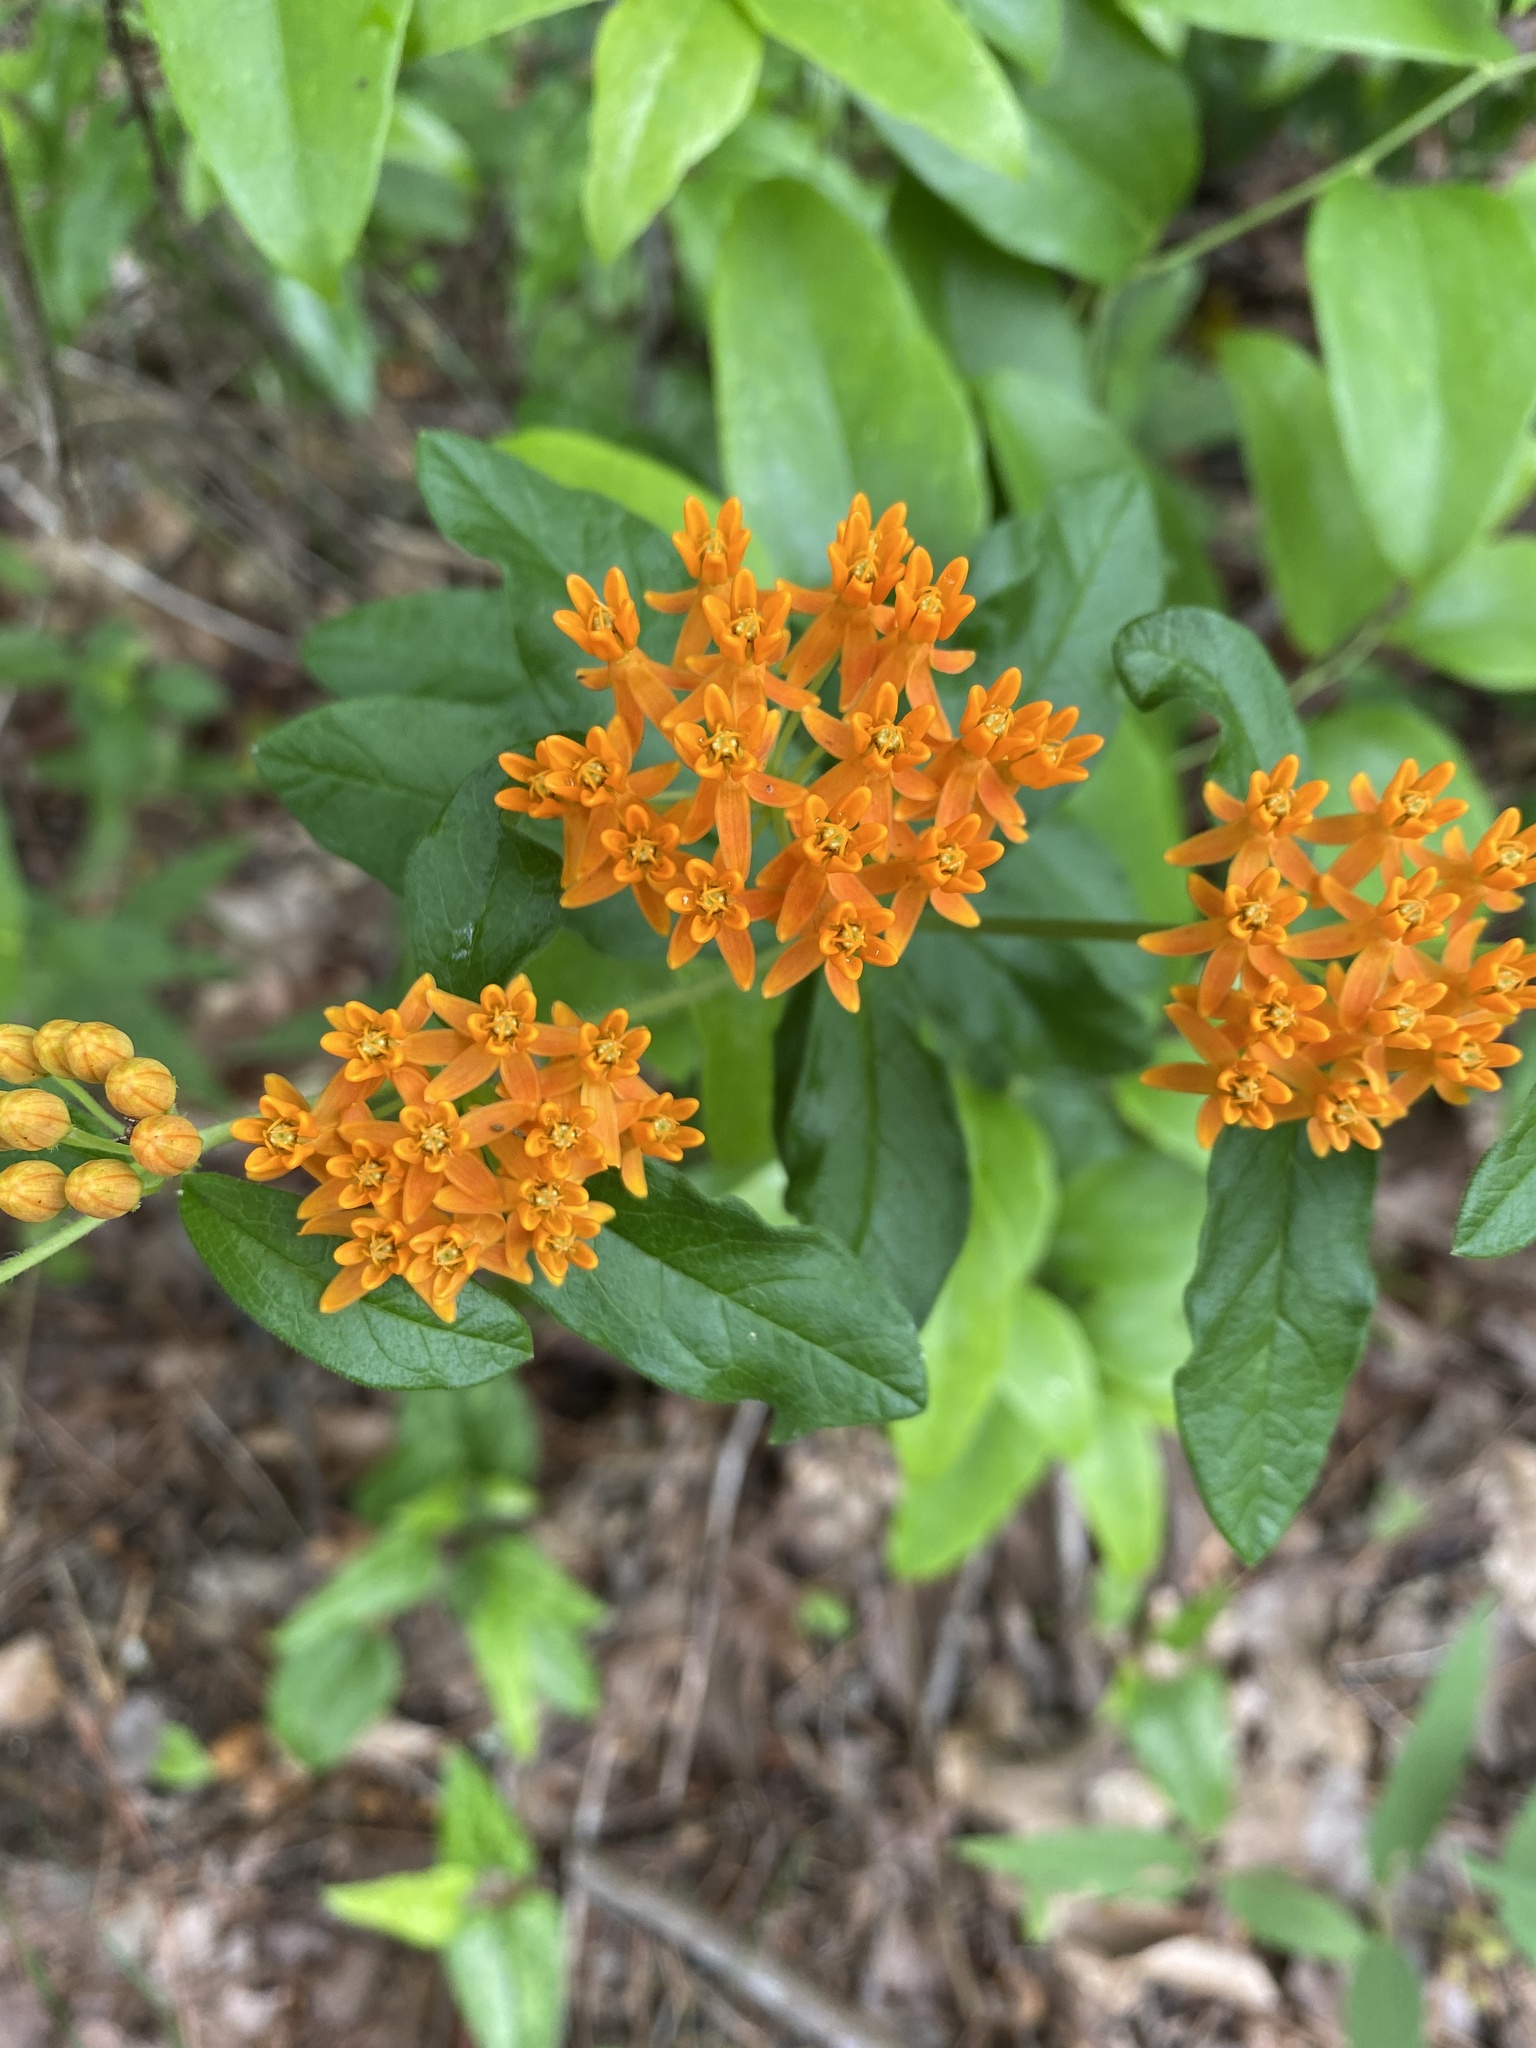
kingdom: Plantae
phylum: Tracheophyta
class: Magnoliopsida
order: Gentianales
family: Apocynaceae
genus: Asclepias
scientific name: Asclepias tuberosa
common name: Butterfly milkweed
